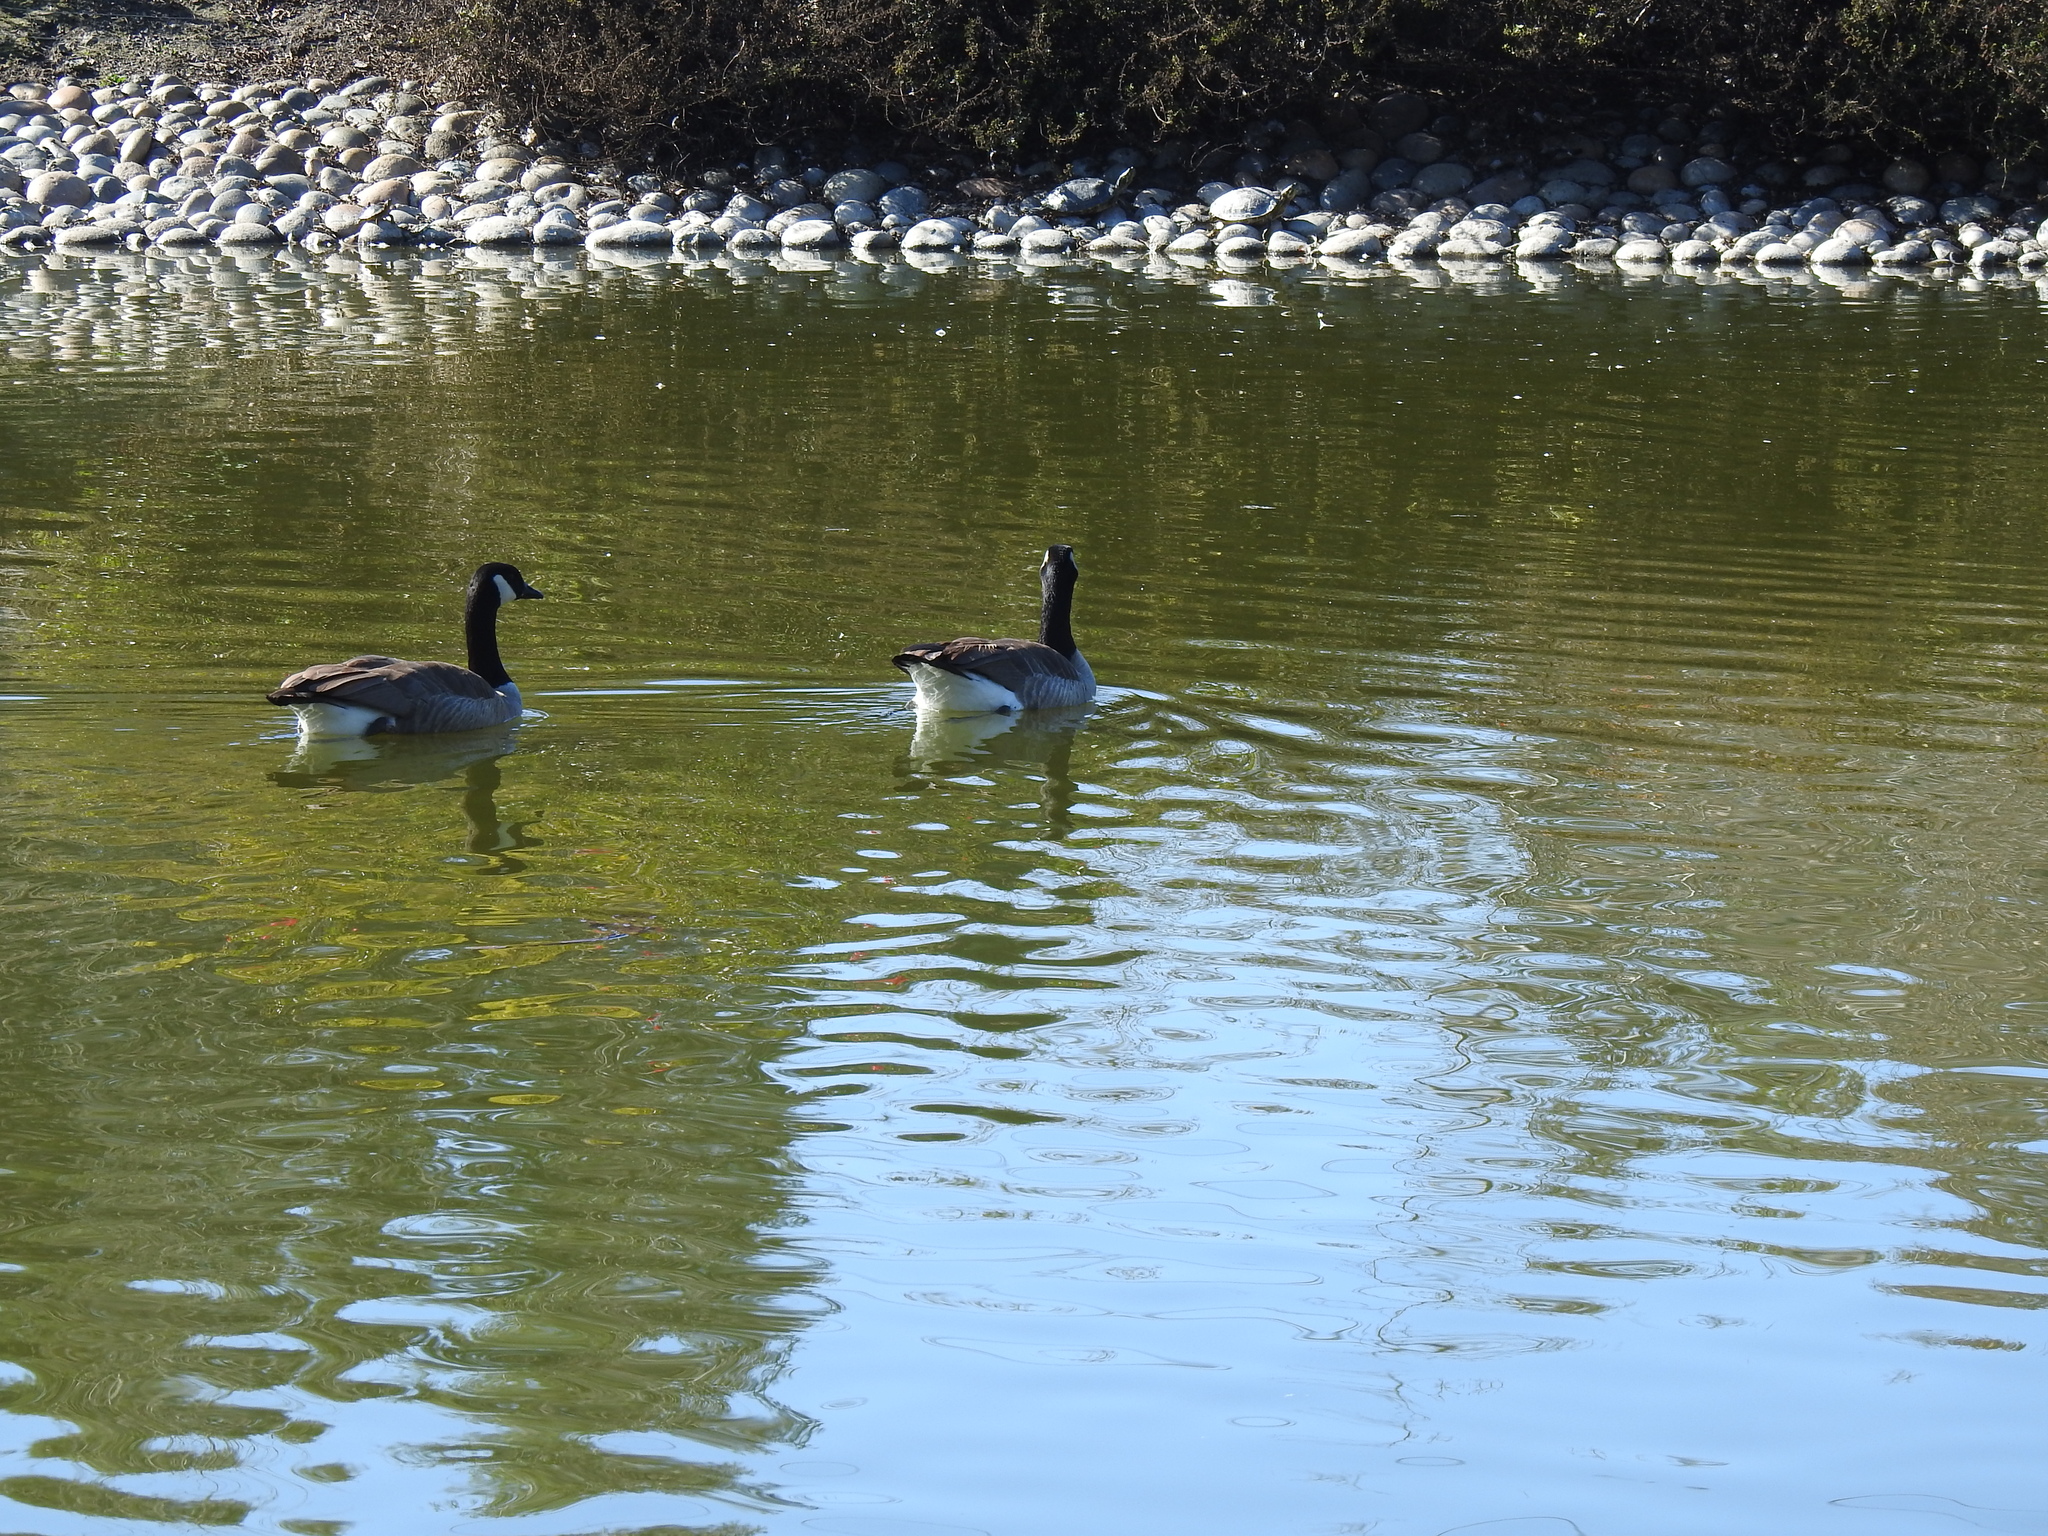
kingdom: Animalia
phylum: Chordata
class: Aves
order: Anseriformes
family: Anatidae
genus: Branta
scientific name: Branta canadensis
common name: Canada goose
